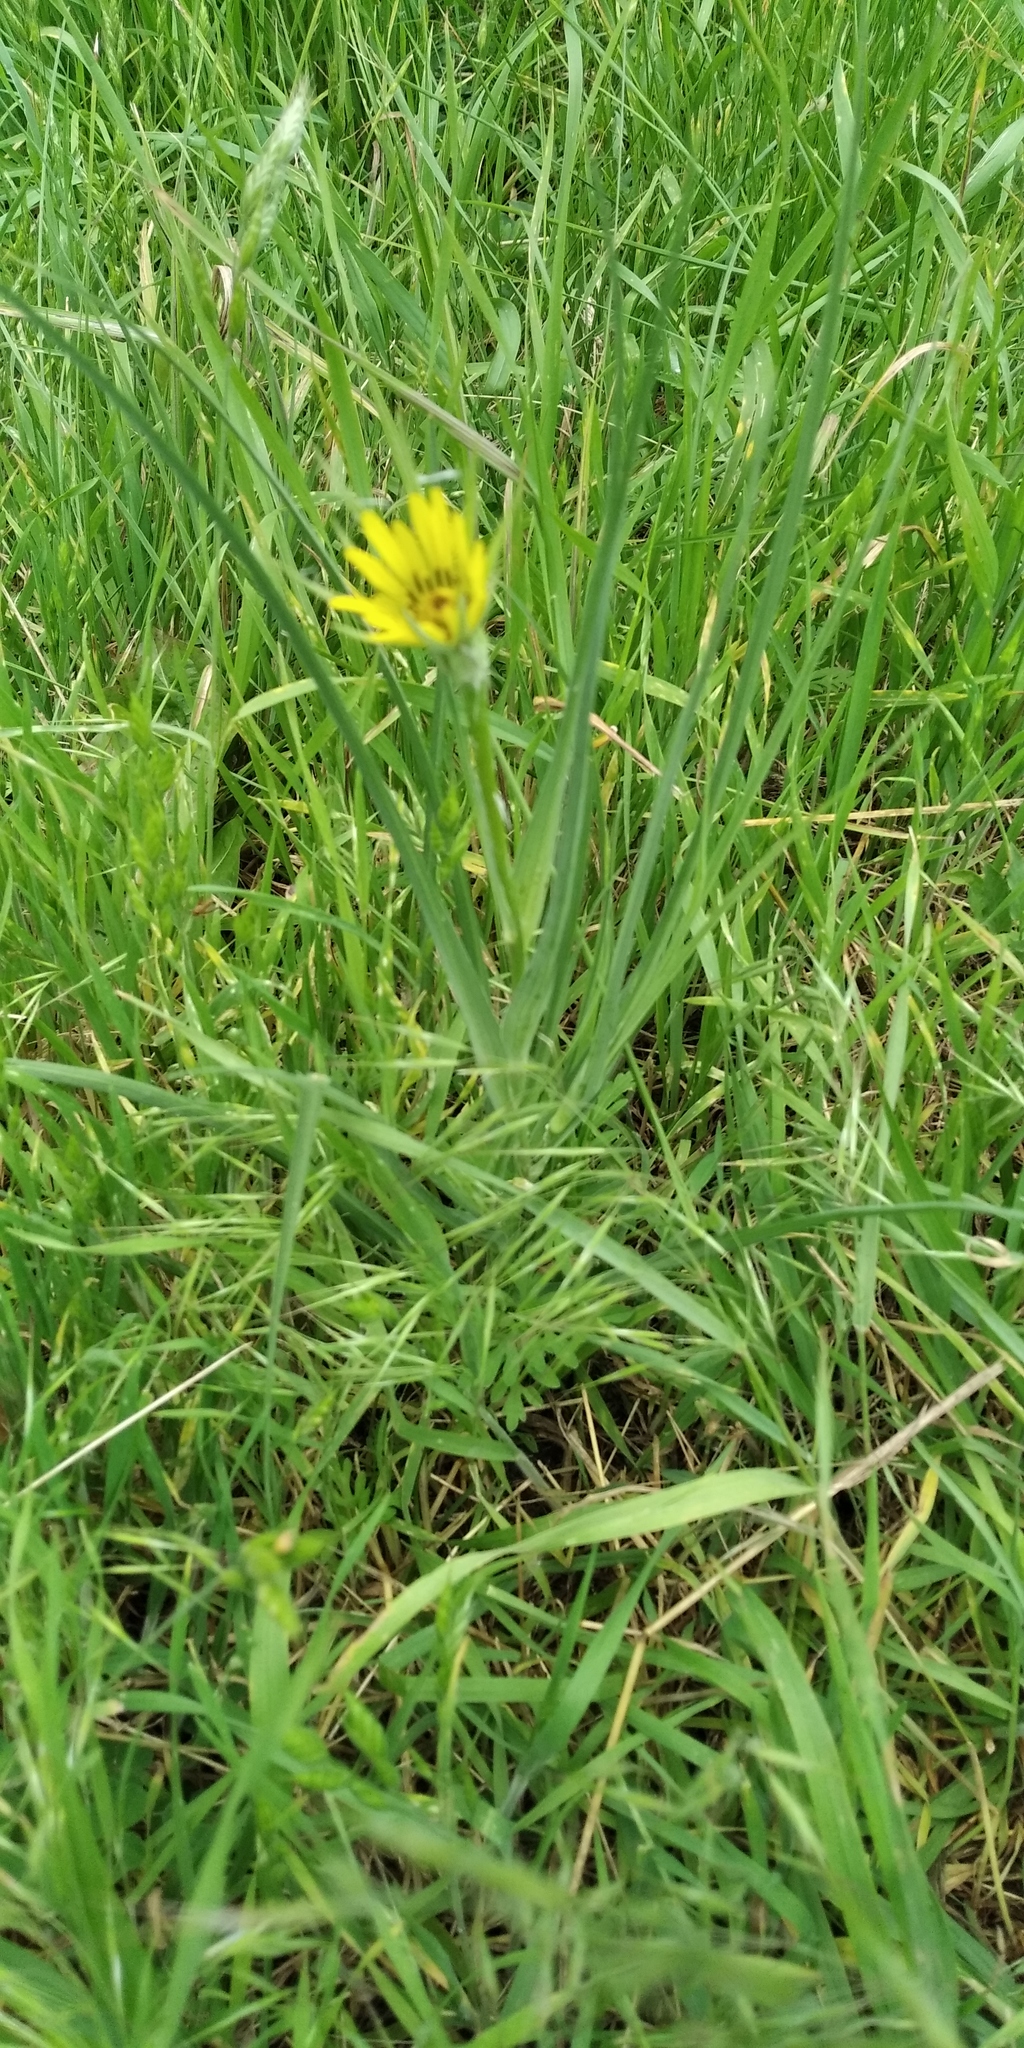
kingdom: Plantae
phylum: Tracheophyta
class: Magnoliopsida
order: Asterales
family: Asteraceae
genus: Tragopogon
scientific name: Tragopogon dubius
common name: Yellow salsify
